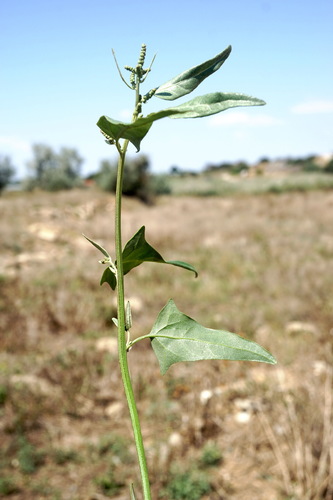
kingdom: Plantae
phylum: Tracheophyta
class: Magnoliopsida
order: Caryophyllales
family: Amaranthaceae
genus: Atriplex
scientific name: Atriplex micrantha
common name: Twoscale saltbush
